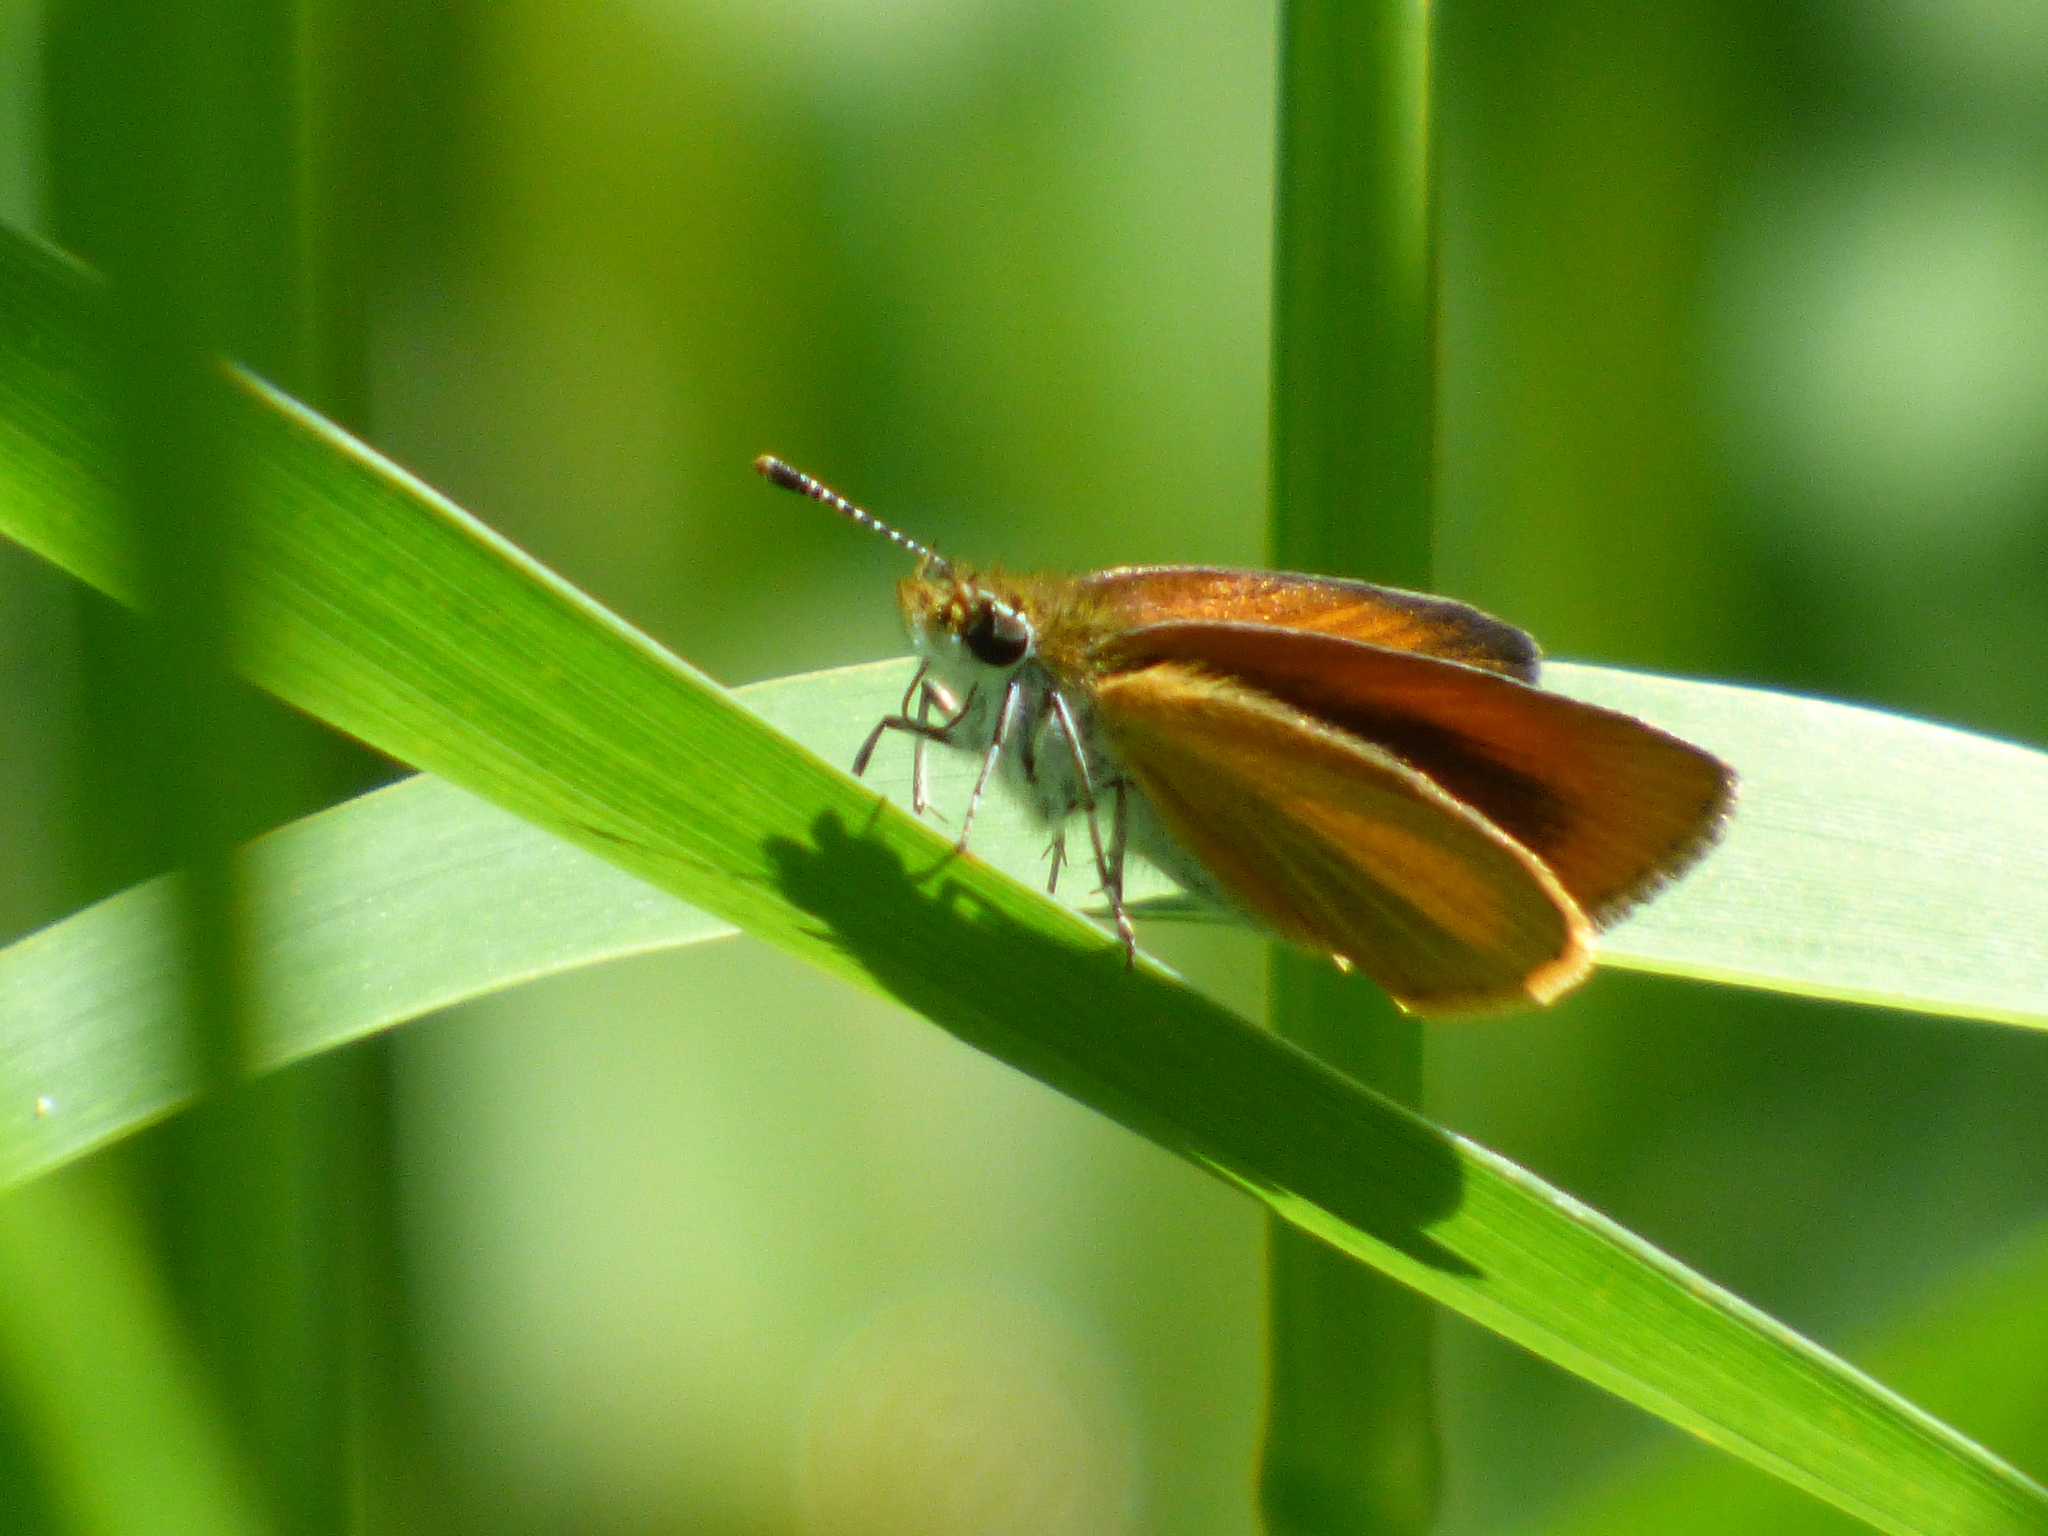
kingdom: Animalia
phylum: Arthropoda
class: Insecta
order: Lepidoptera
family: Hesperiidae
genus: Ancyloxypha
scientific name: Ancyloxypha numitor
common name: Least skipper
